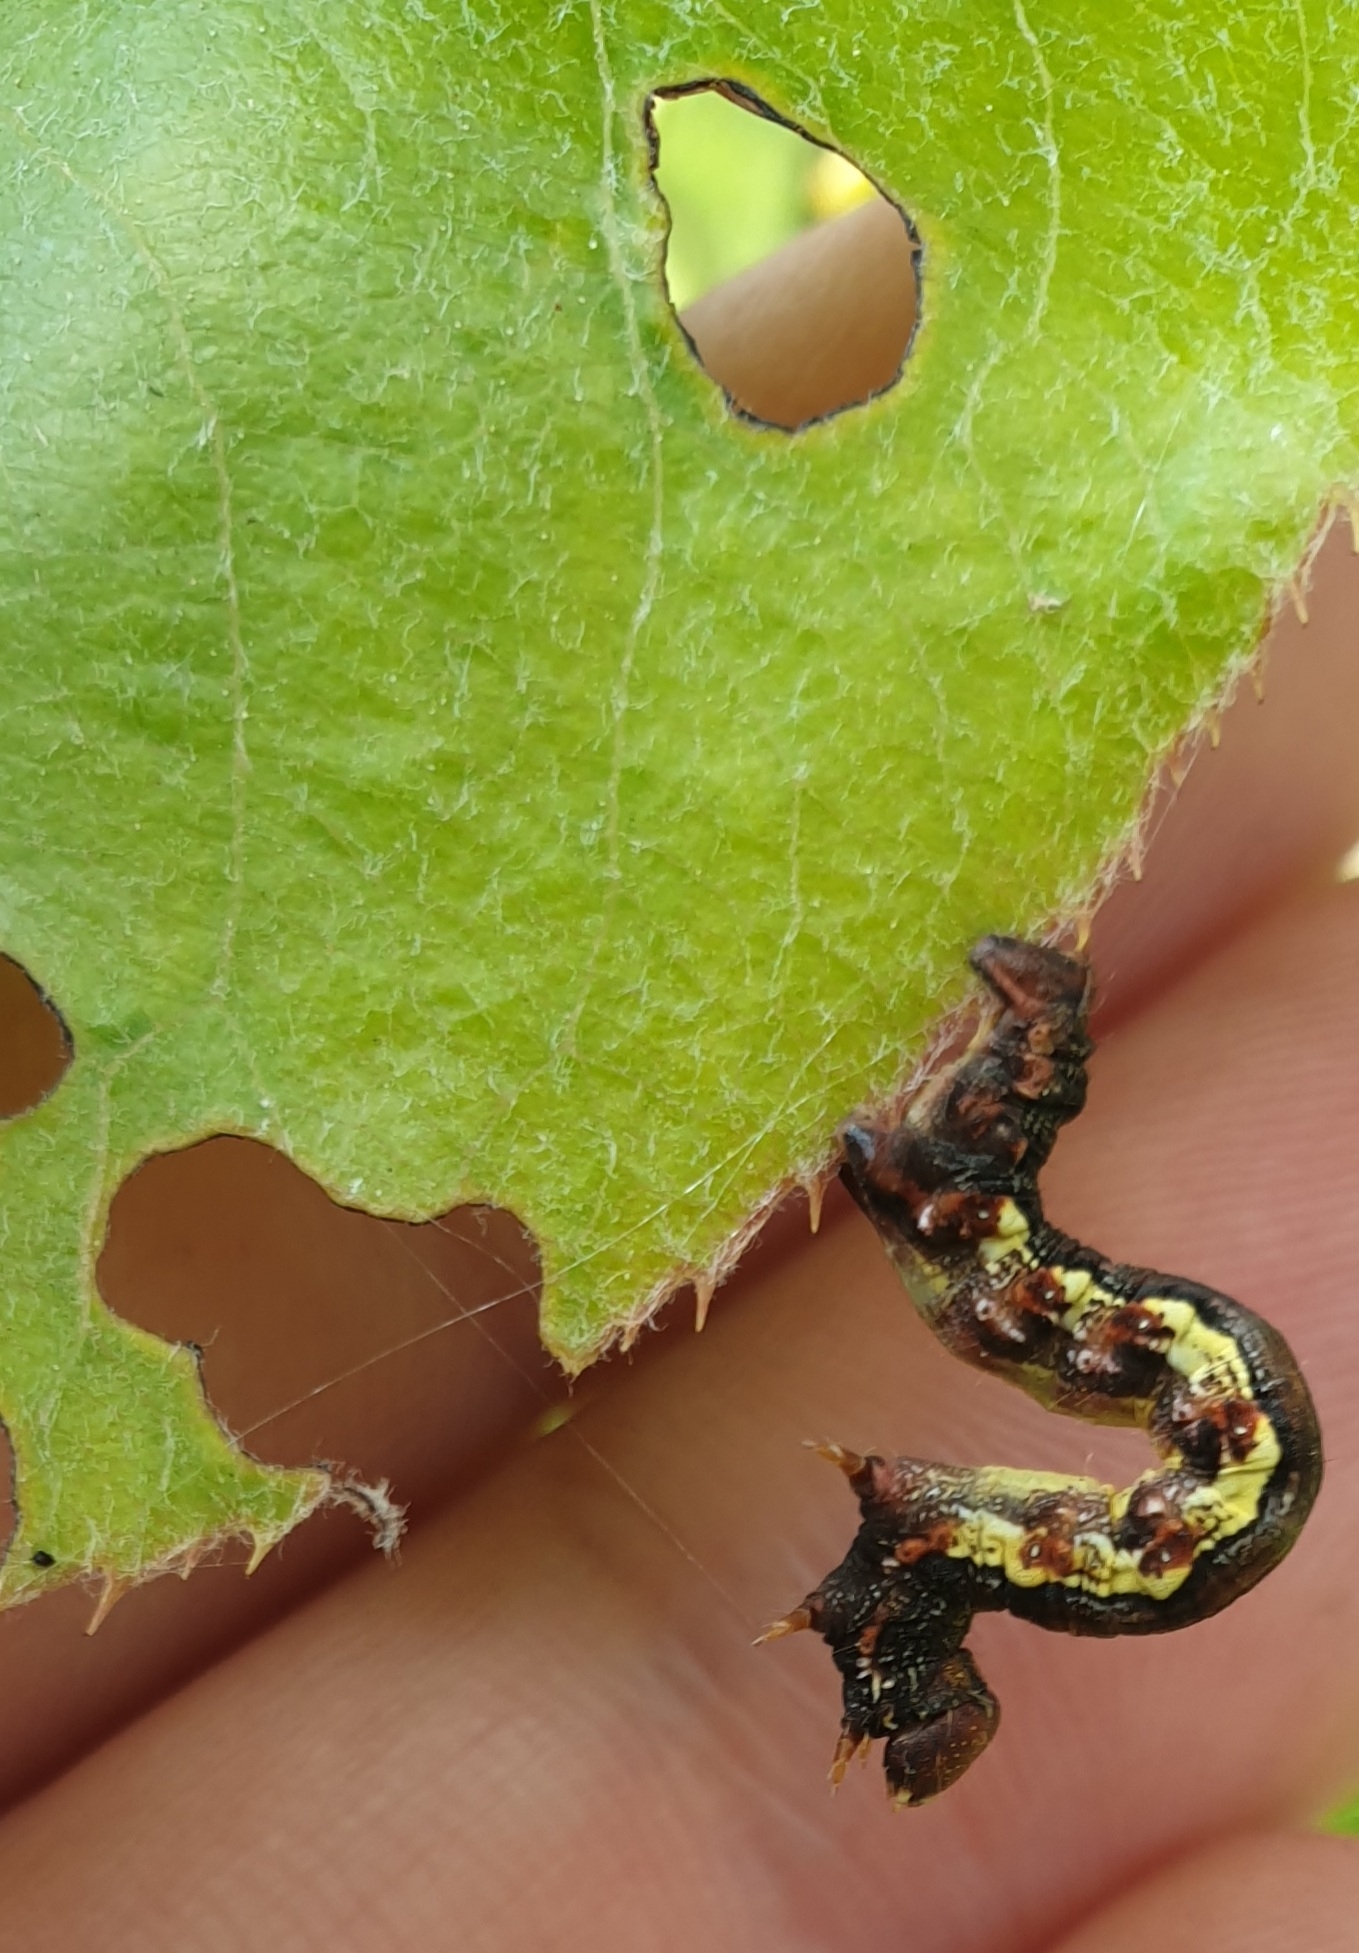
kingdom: Animalia
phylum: Arthropoda
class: Insecta
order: Lepidoptera
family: Geometridae
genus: Erannis
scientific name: Erannis defoliaria
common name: Mottled umber
